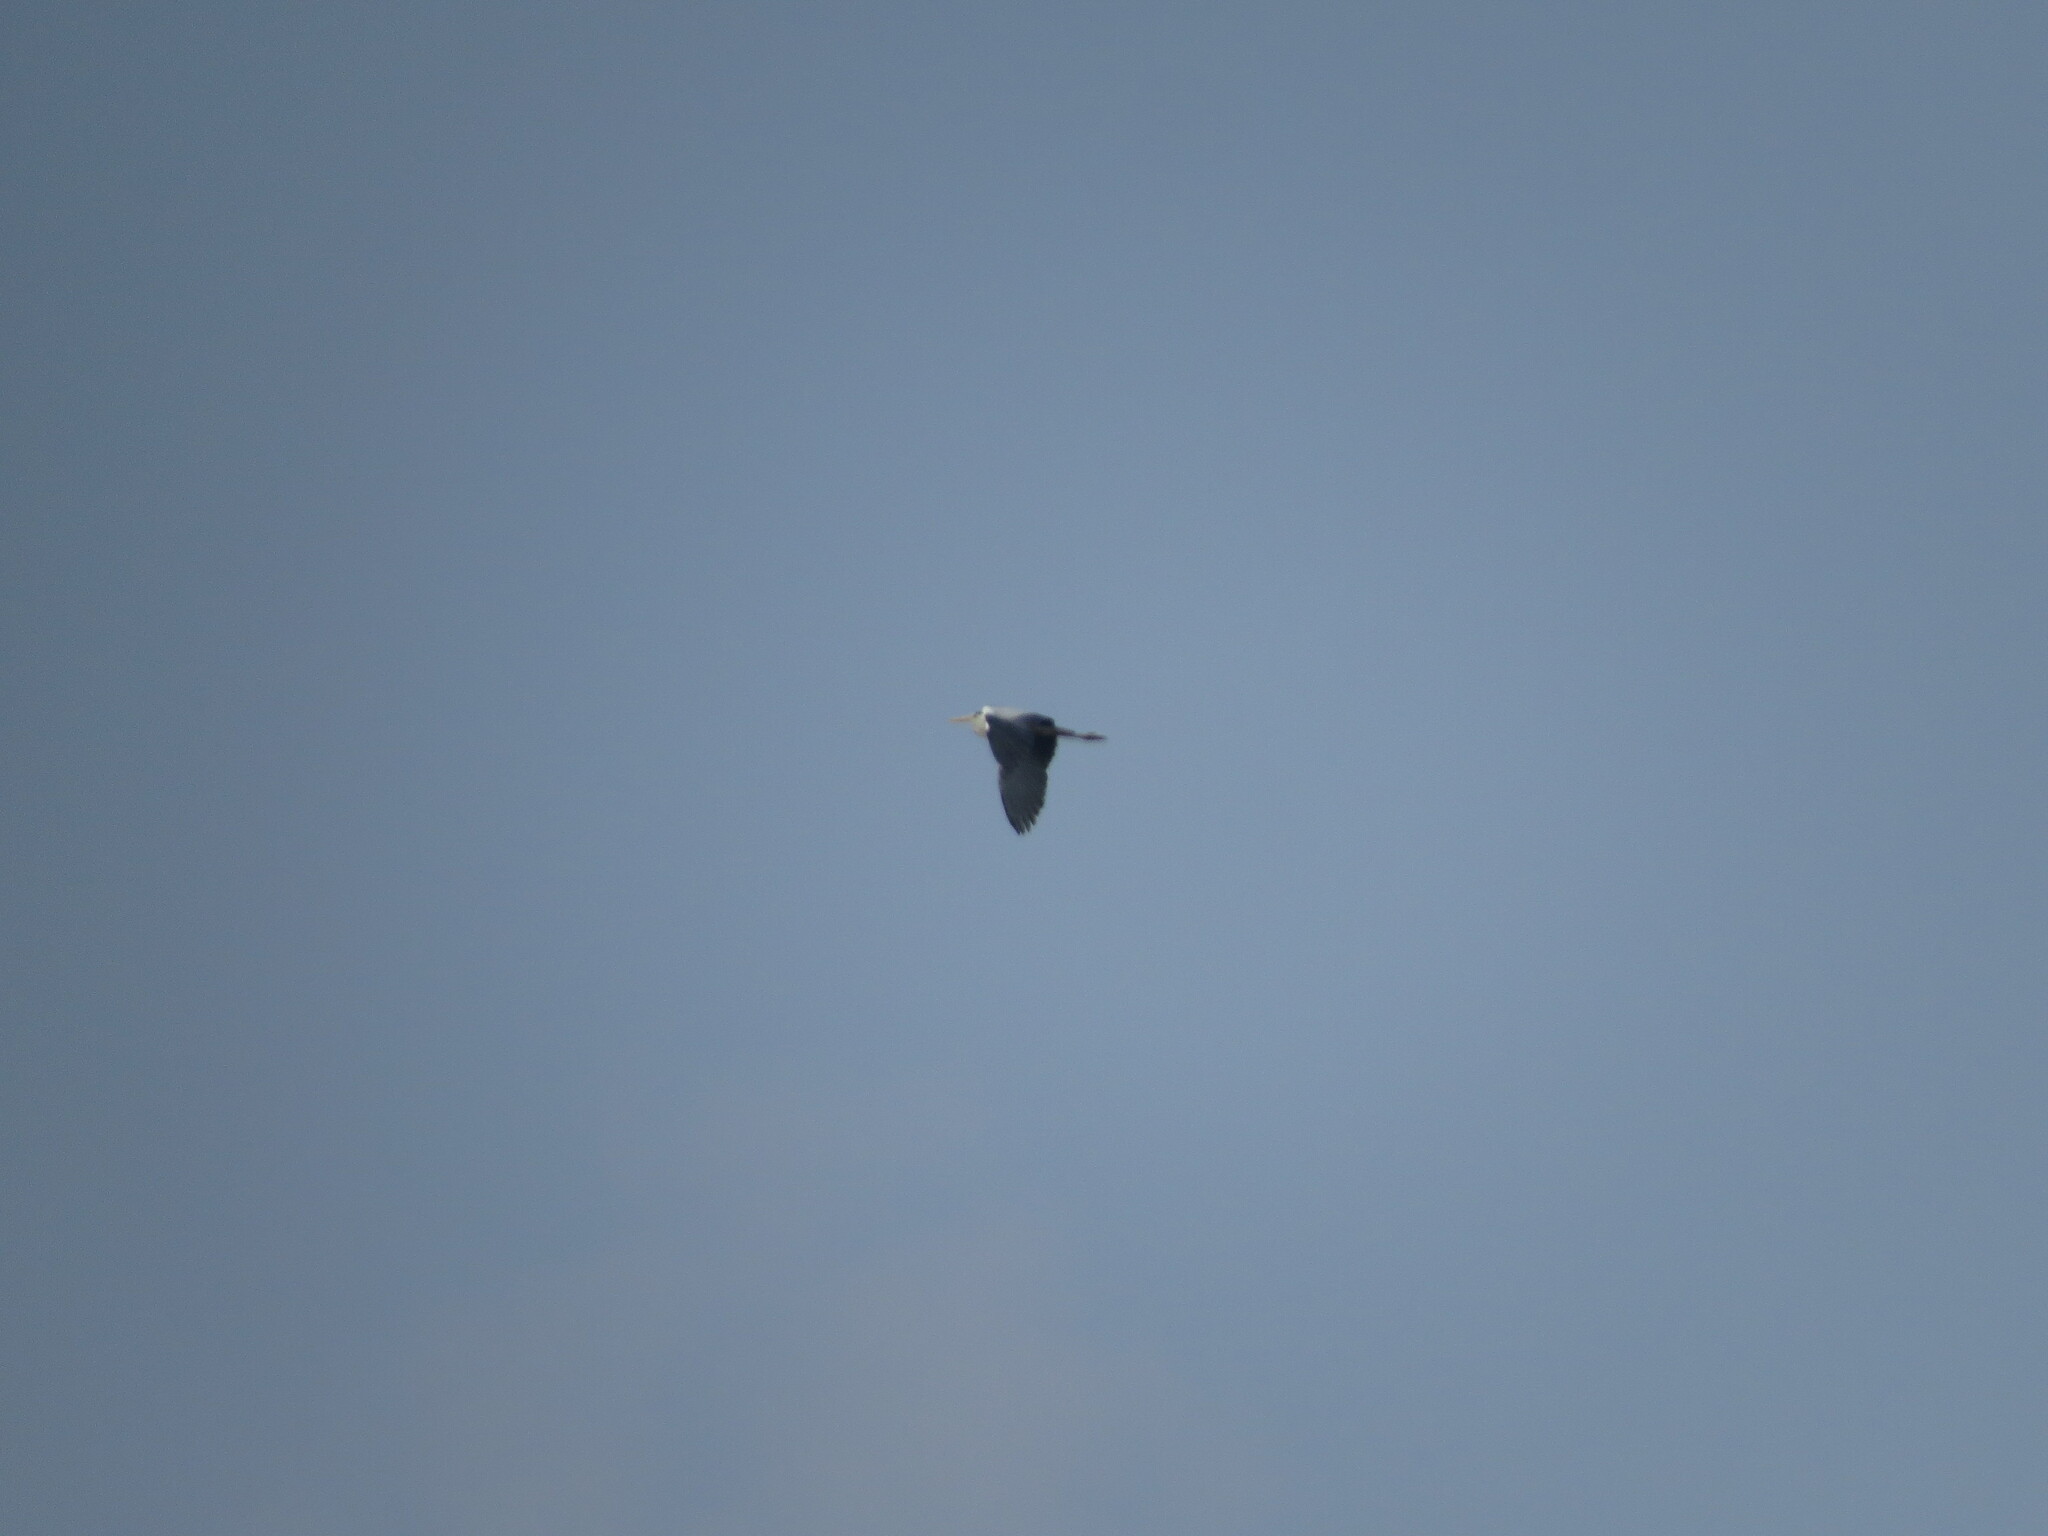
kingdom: Animalia
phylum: Chordata
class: Aves
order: Pelecaniformes
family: Ardeidae
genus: Ardea
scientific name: Ardea cinerea
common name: Grey heron
